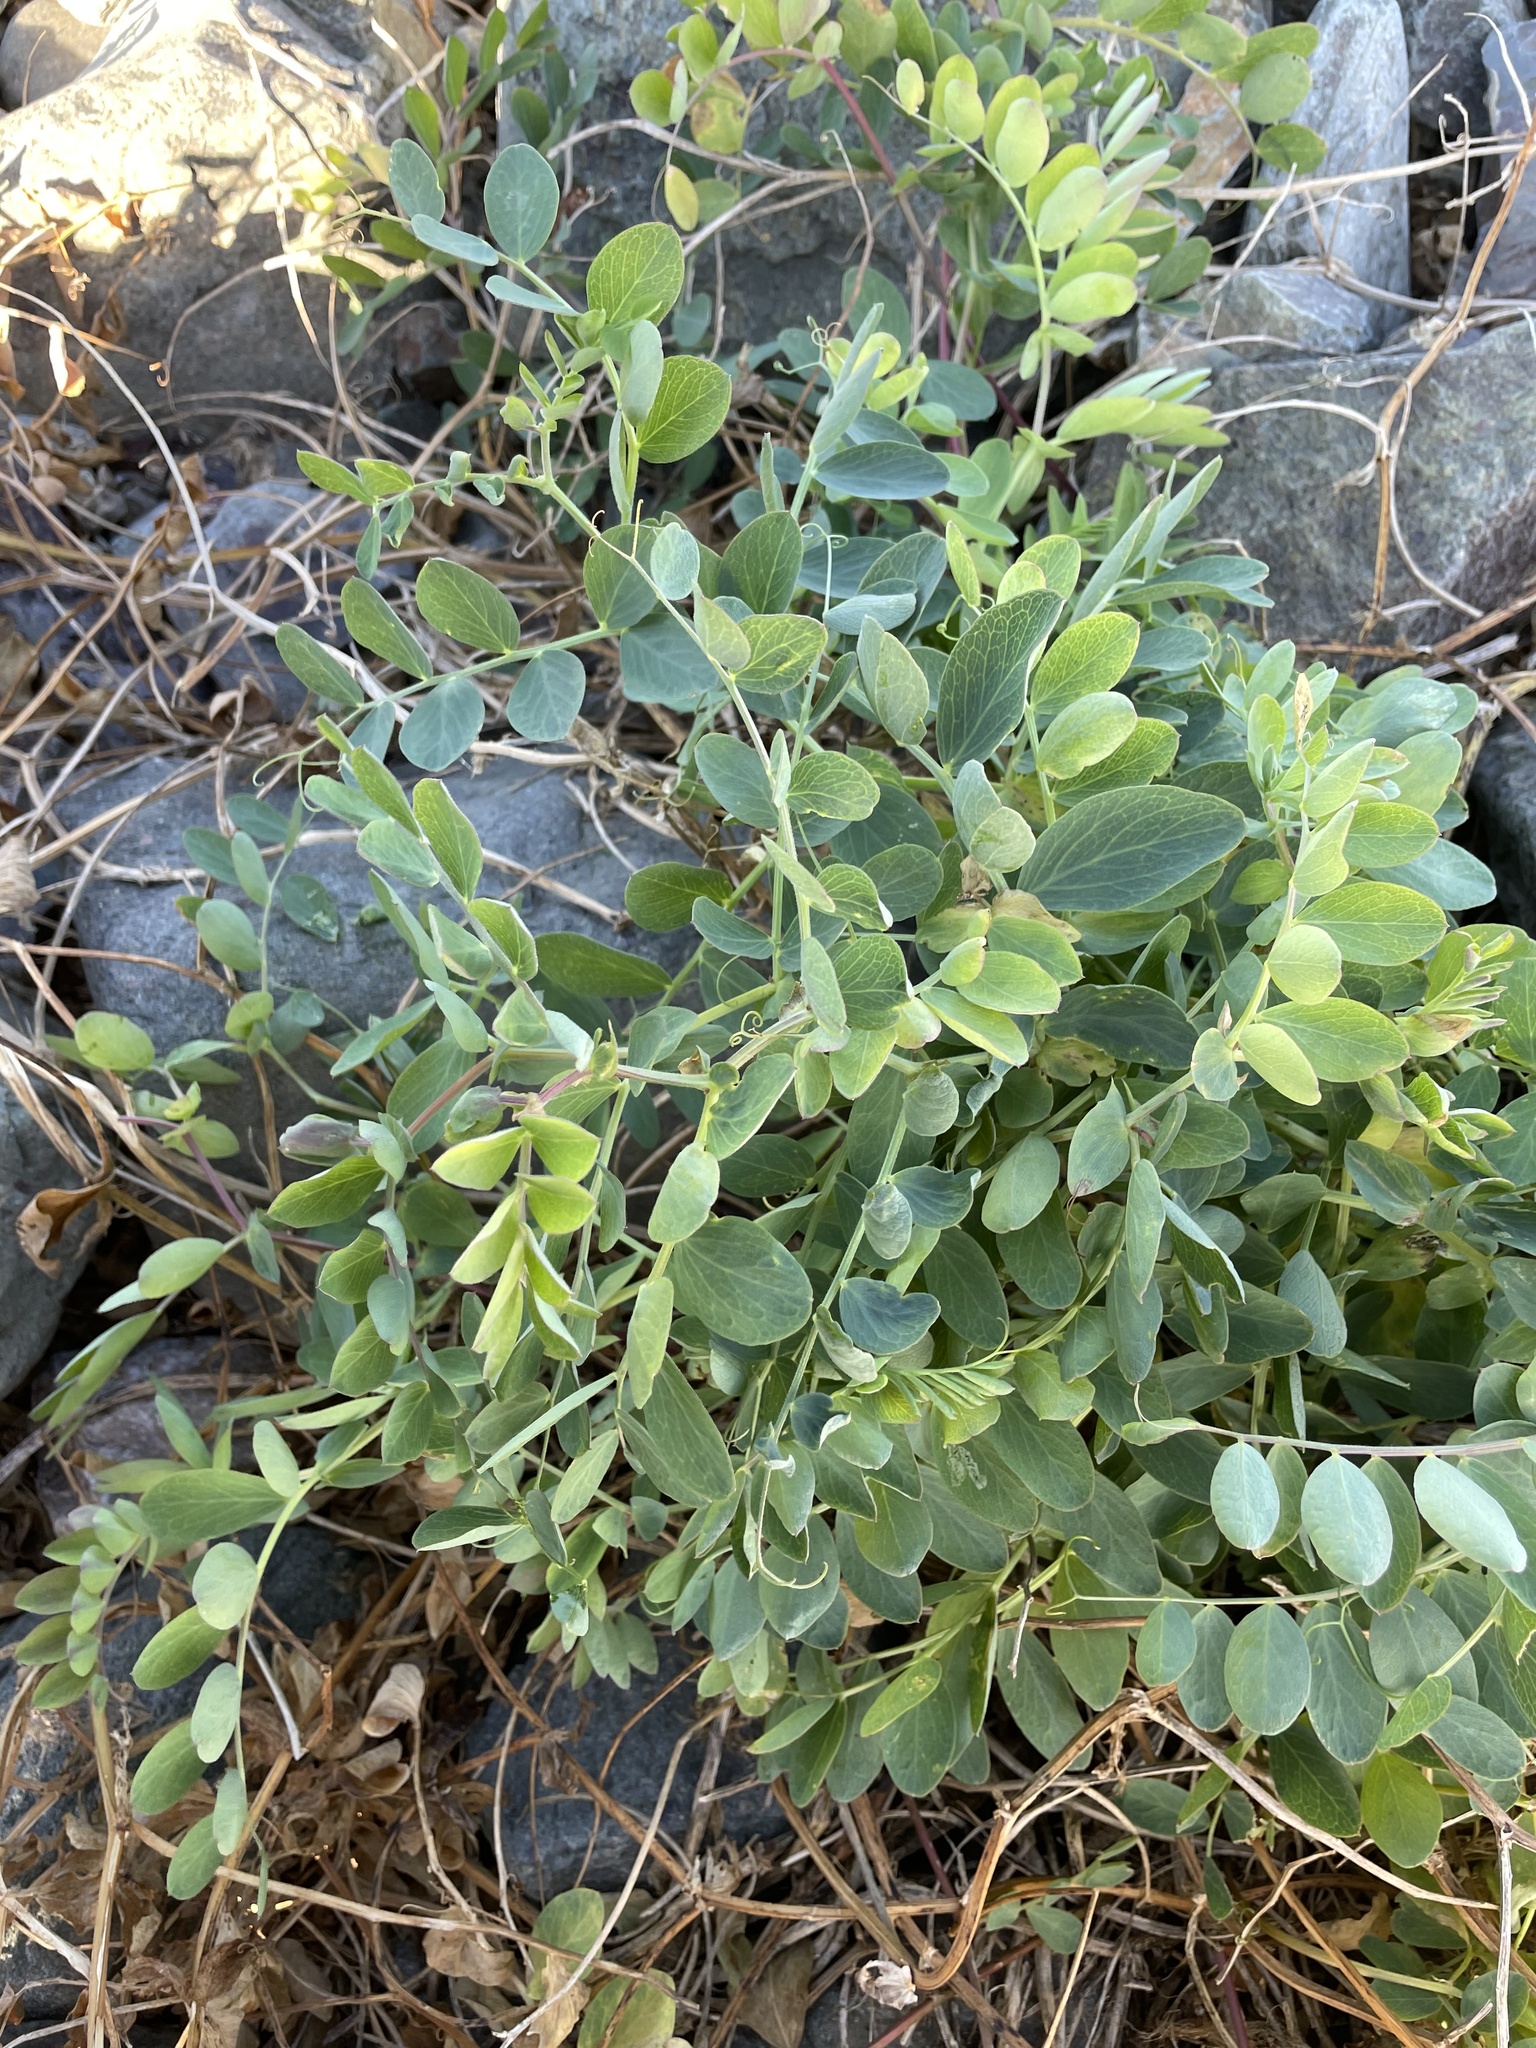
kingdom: Plantae
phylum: Tracheophyta
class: Magnoliopsida
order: Fabales
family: Fabaceae
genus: Lathyrus
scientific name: Lathyrus japonicus
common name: Sea pea
